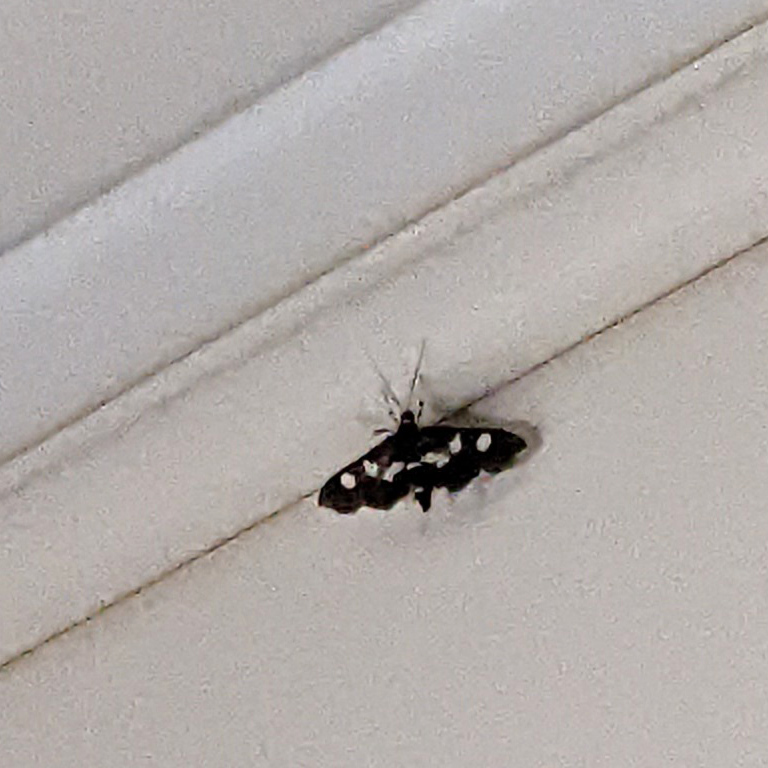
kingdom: Animalia
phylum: Arthropoda
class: Insecta
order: Lepidoptera
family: Crambidae
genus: Desmia
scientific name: Desmia
